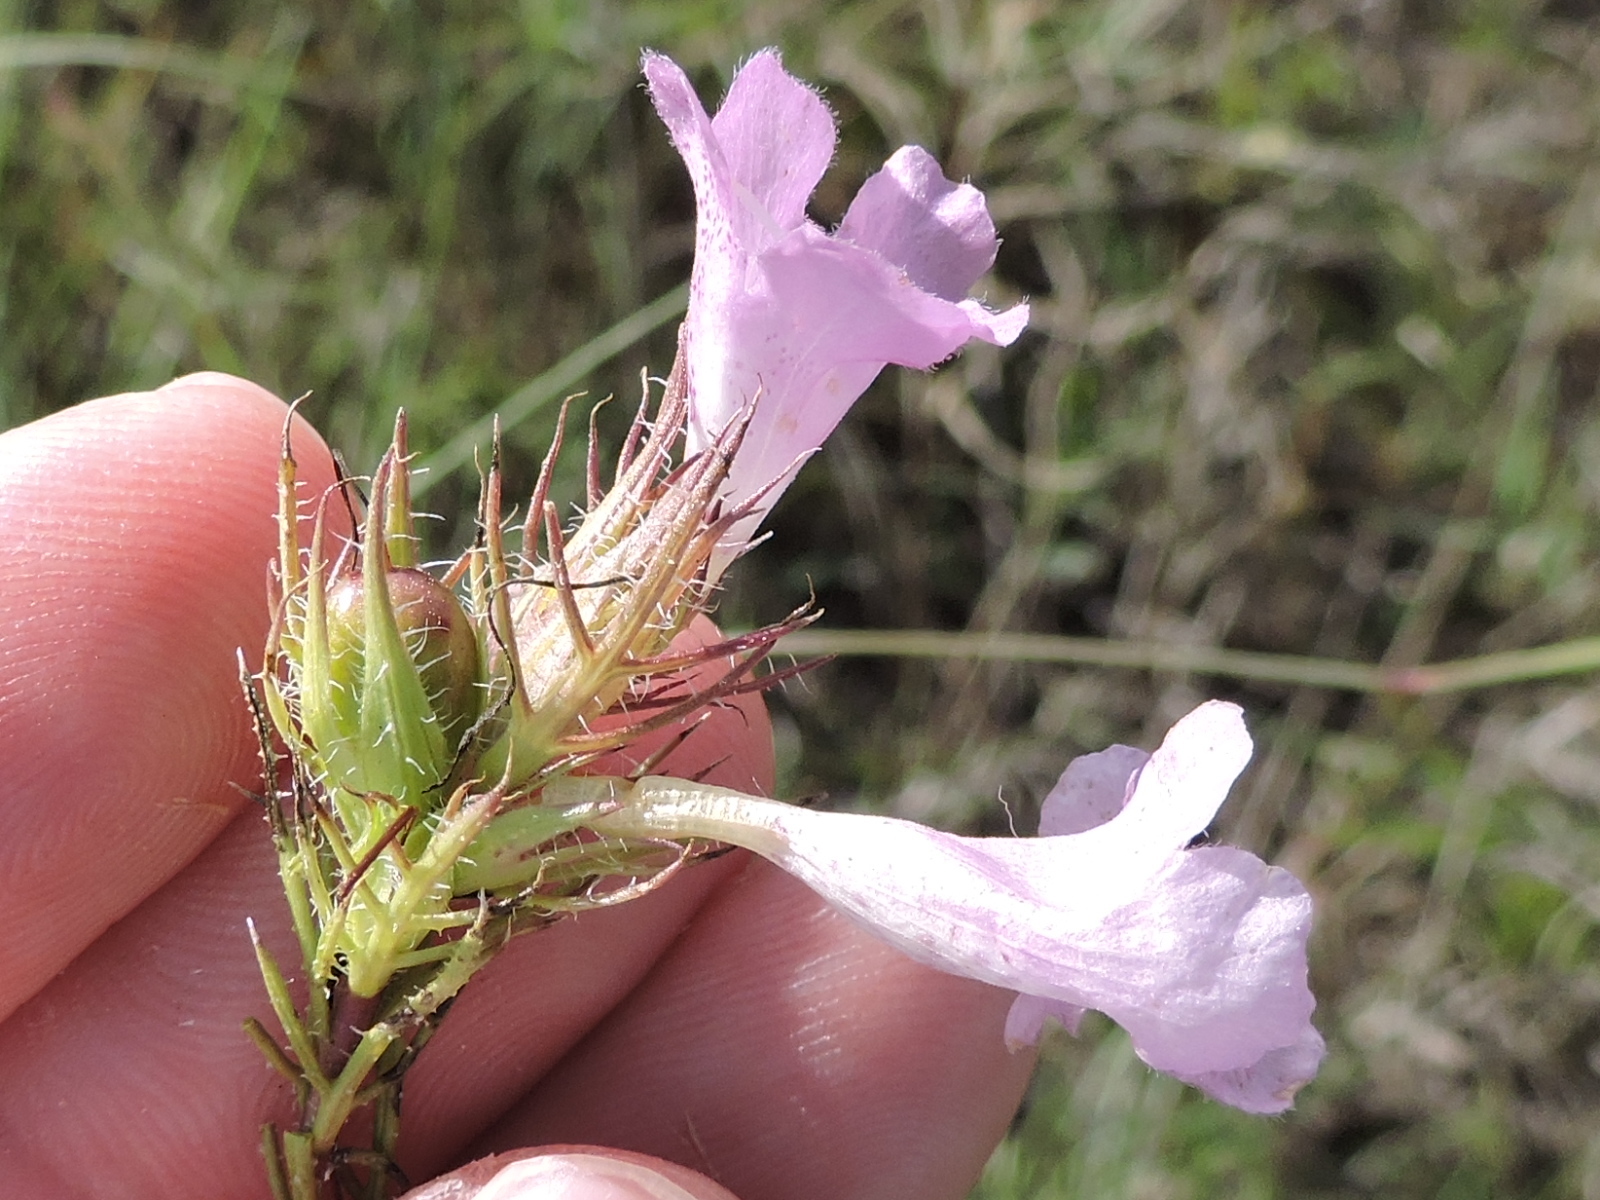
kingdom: Plantae
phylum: Tracheophyta
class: Magnoliopsida
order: Lamiales
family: Orobanchaceae
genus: Agalinis
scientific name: Agalinis densiflora
